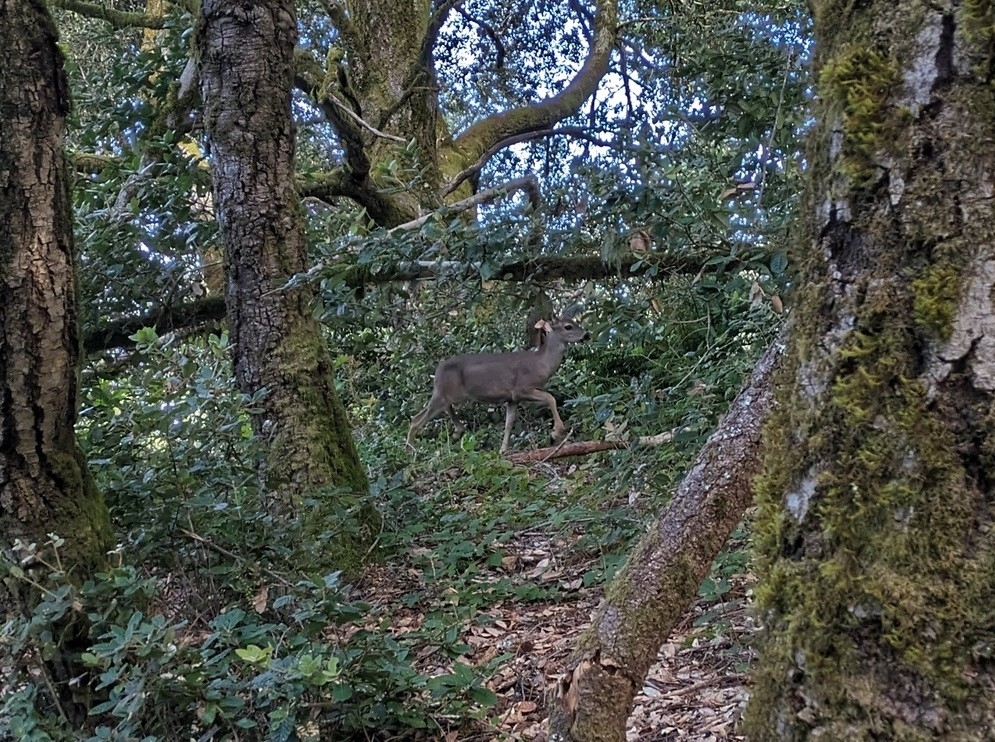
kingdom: Animalia
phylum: Chordata
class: Mammalia
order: Artiodactyla
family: Cervidae
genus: Odocoileus
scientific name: Odocoileus hemionus
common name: Mule deer
